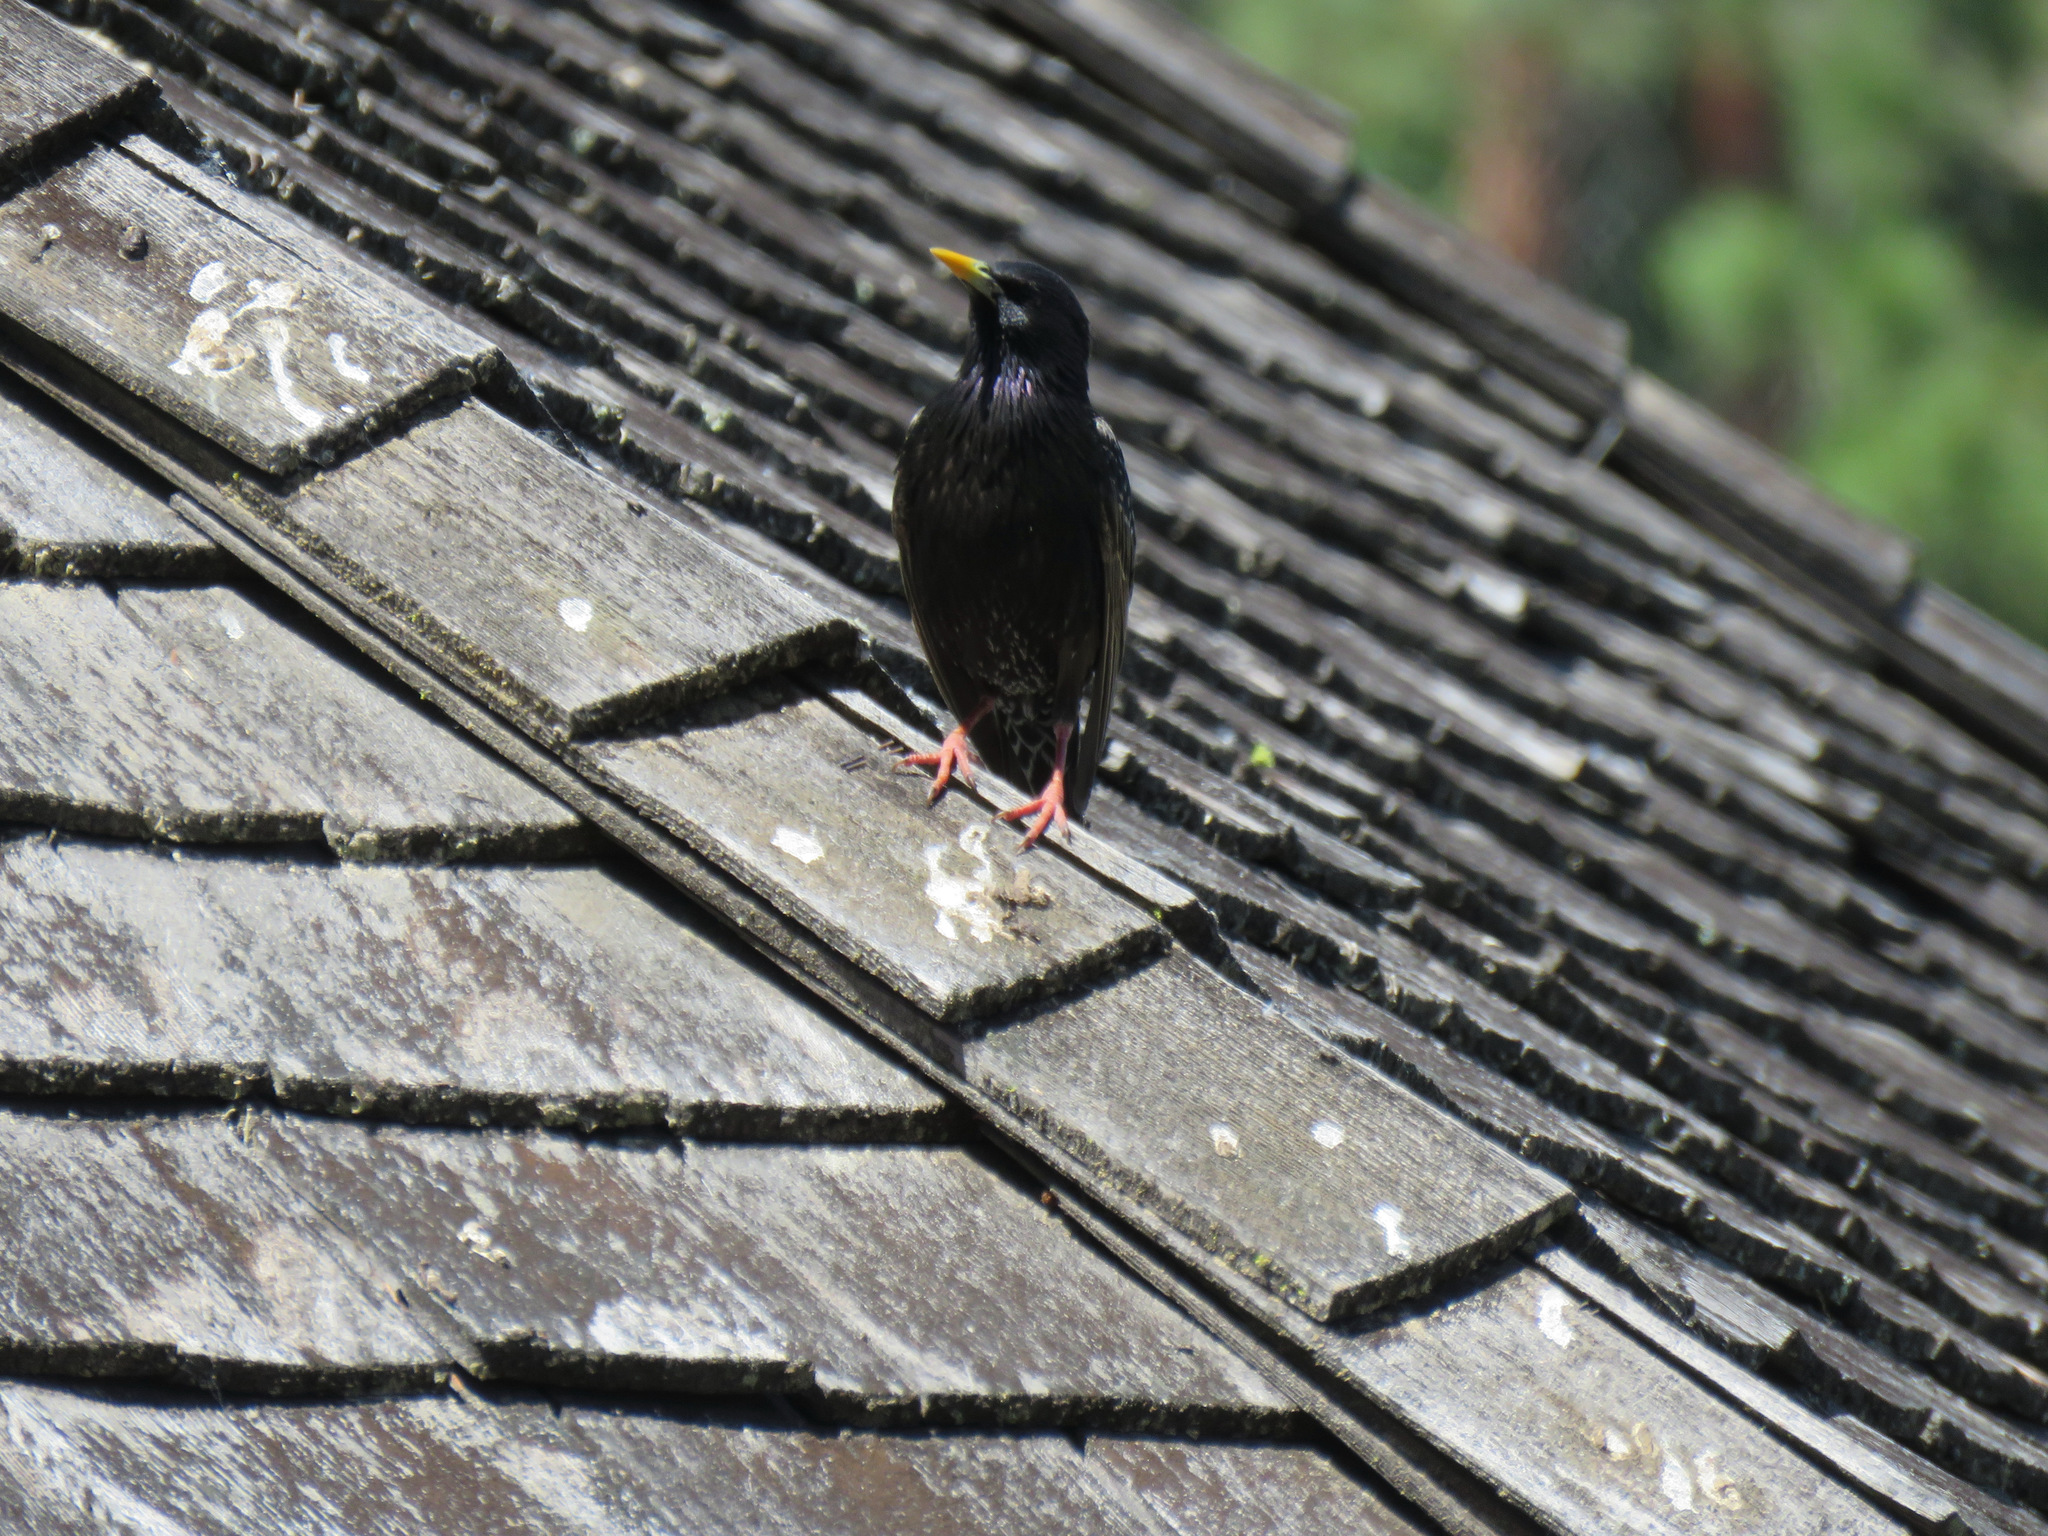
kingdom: Animalia
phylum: Chordata
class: Aves
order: Passeriformes
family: Sturnidae
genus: Sturnus
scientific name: Sturnus vulgaris
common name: Common starling
